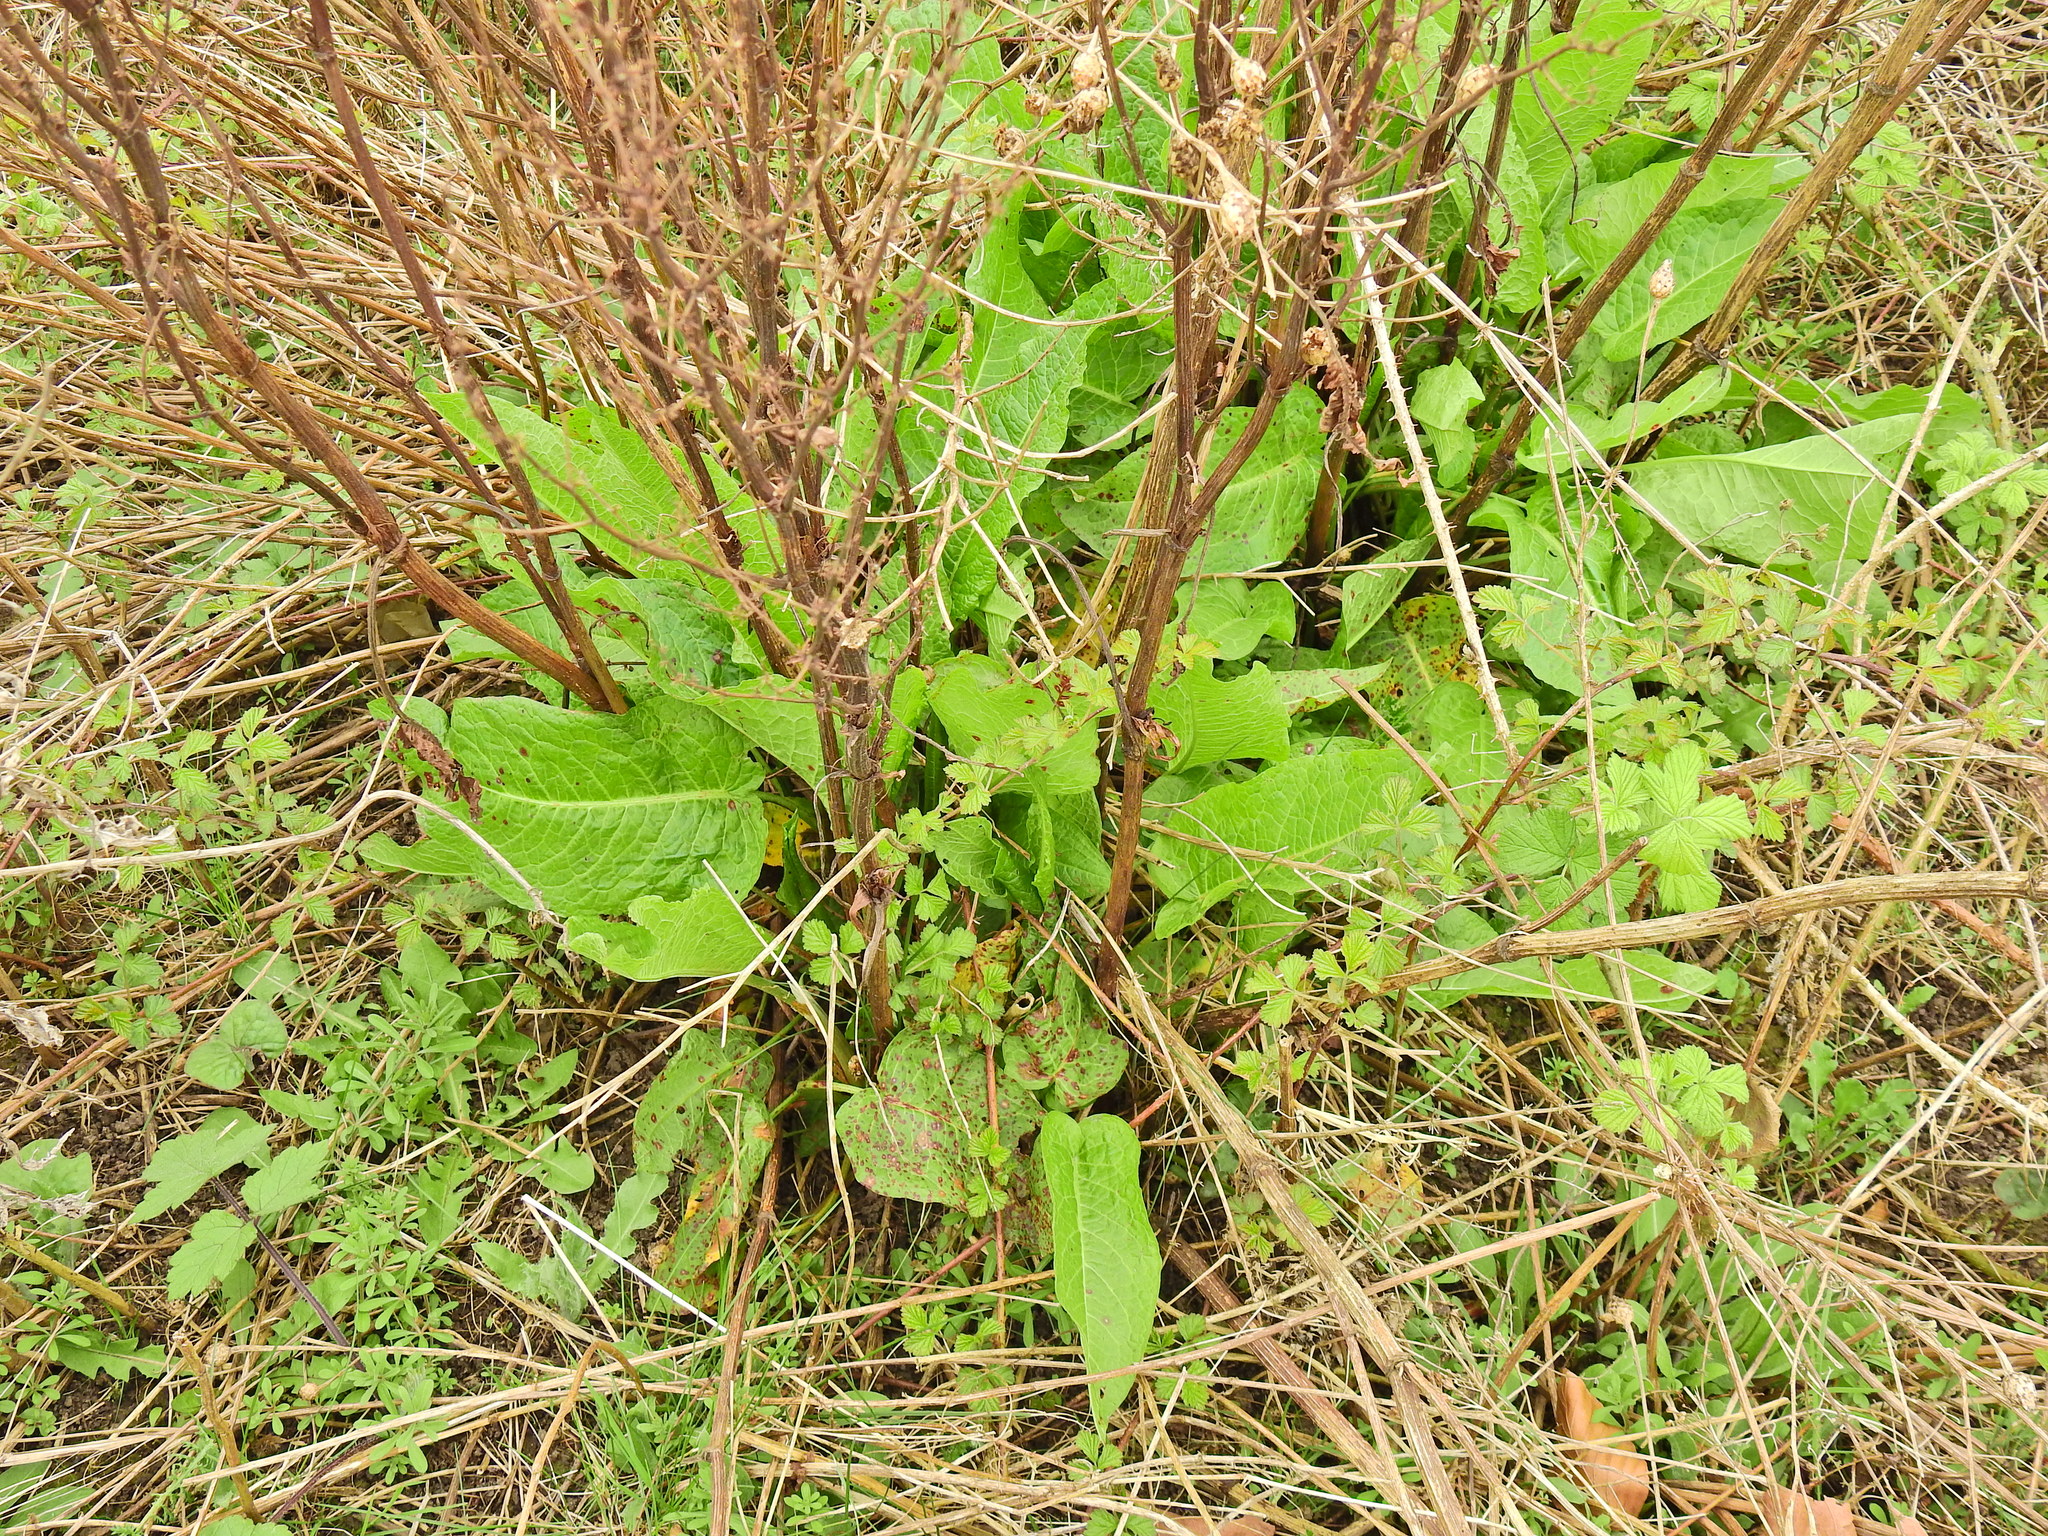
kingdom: Plantae
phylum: Tracheophyta
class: Magnoliopsida
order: Caryophyllales
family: Polygonaceae
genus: Rumex
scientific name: Rumex obtusifolius
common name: Bitter dock
